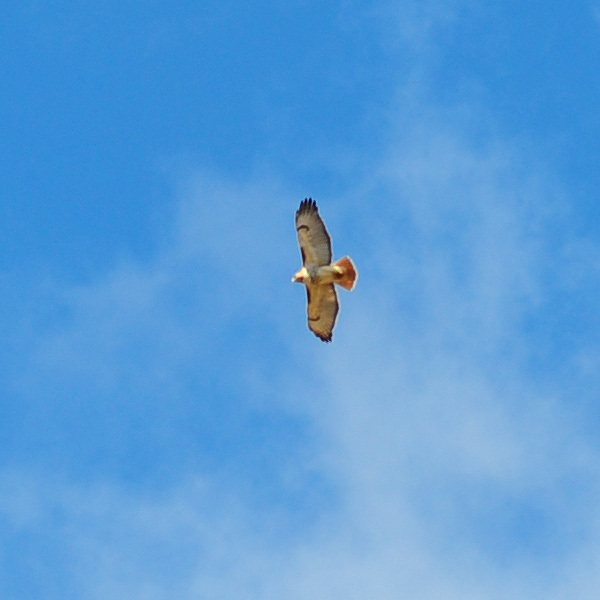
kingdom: Animalia
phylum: Chordata
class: Aves
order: Accipitriformes
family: Accipitridae
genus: Buteo
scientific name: Buteo jamaicensis
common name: Red-tailed hawk
